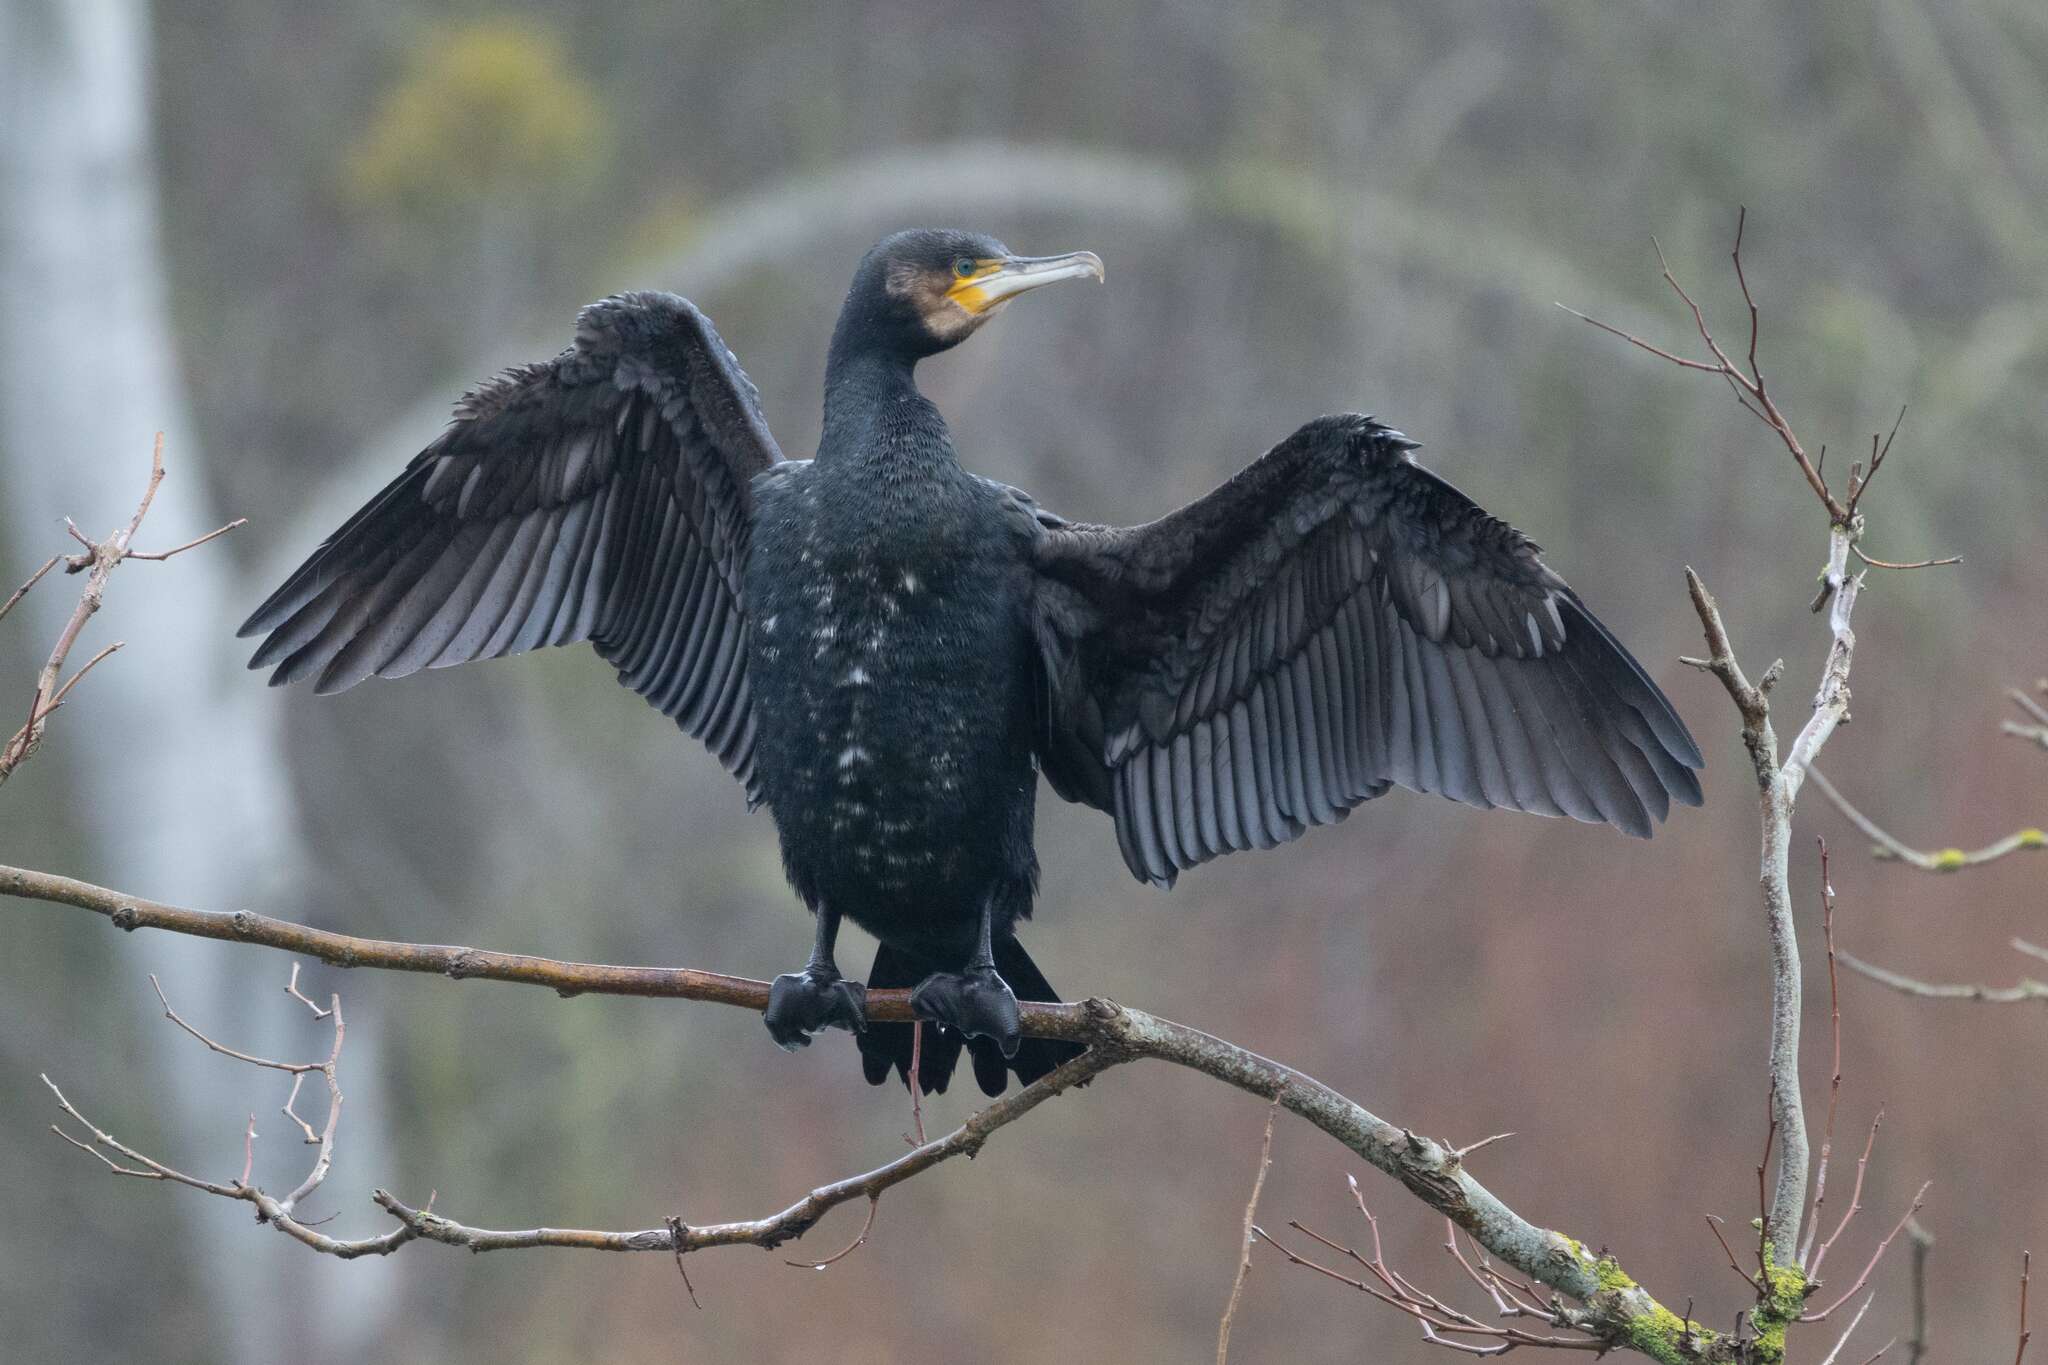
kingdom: Animalia
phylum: Chordata
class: Aves
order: Suliformes
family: Phalacrocoracidae
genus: Phalacrocorax
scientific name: Phalacrocorax carbo
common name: Great cormorant
